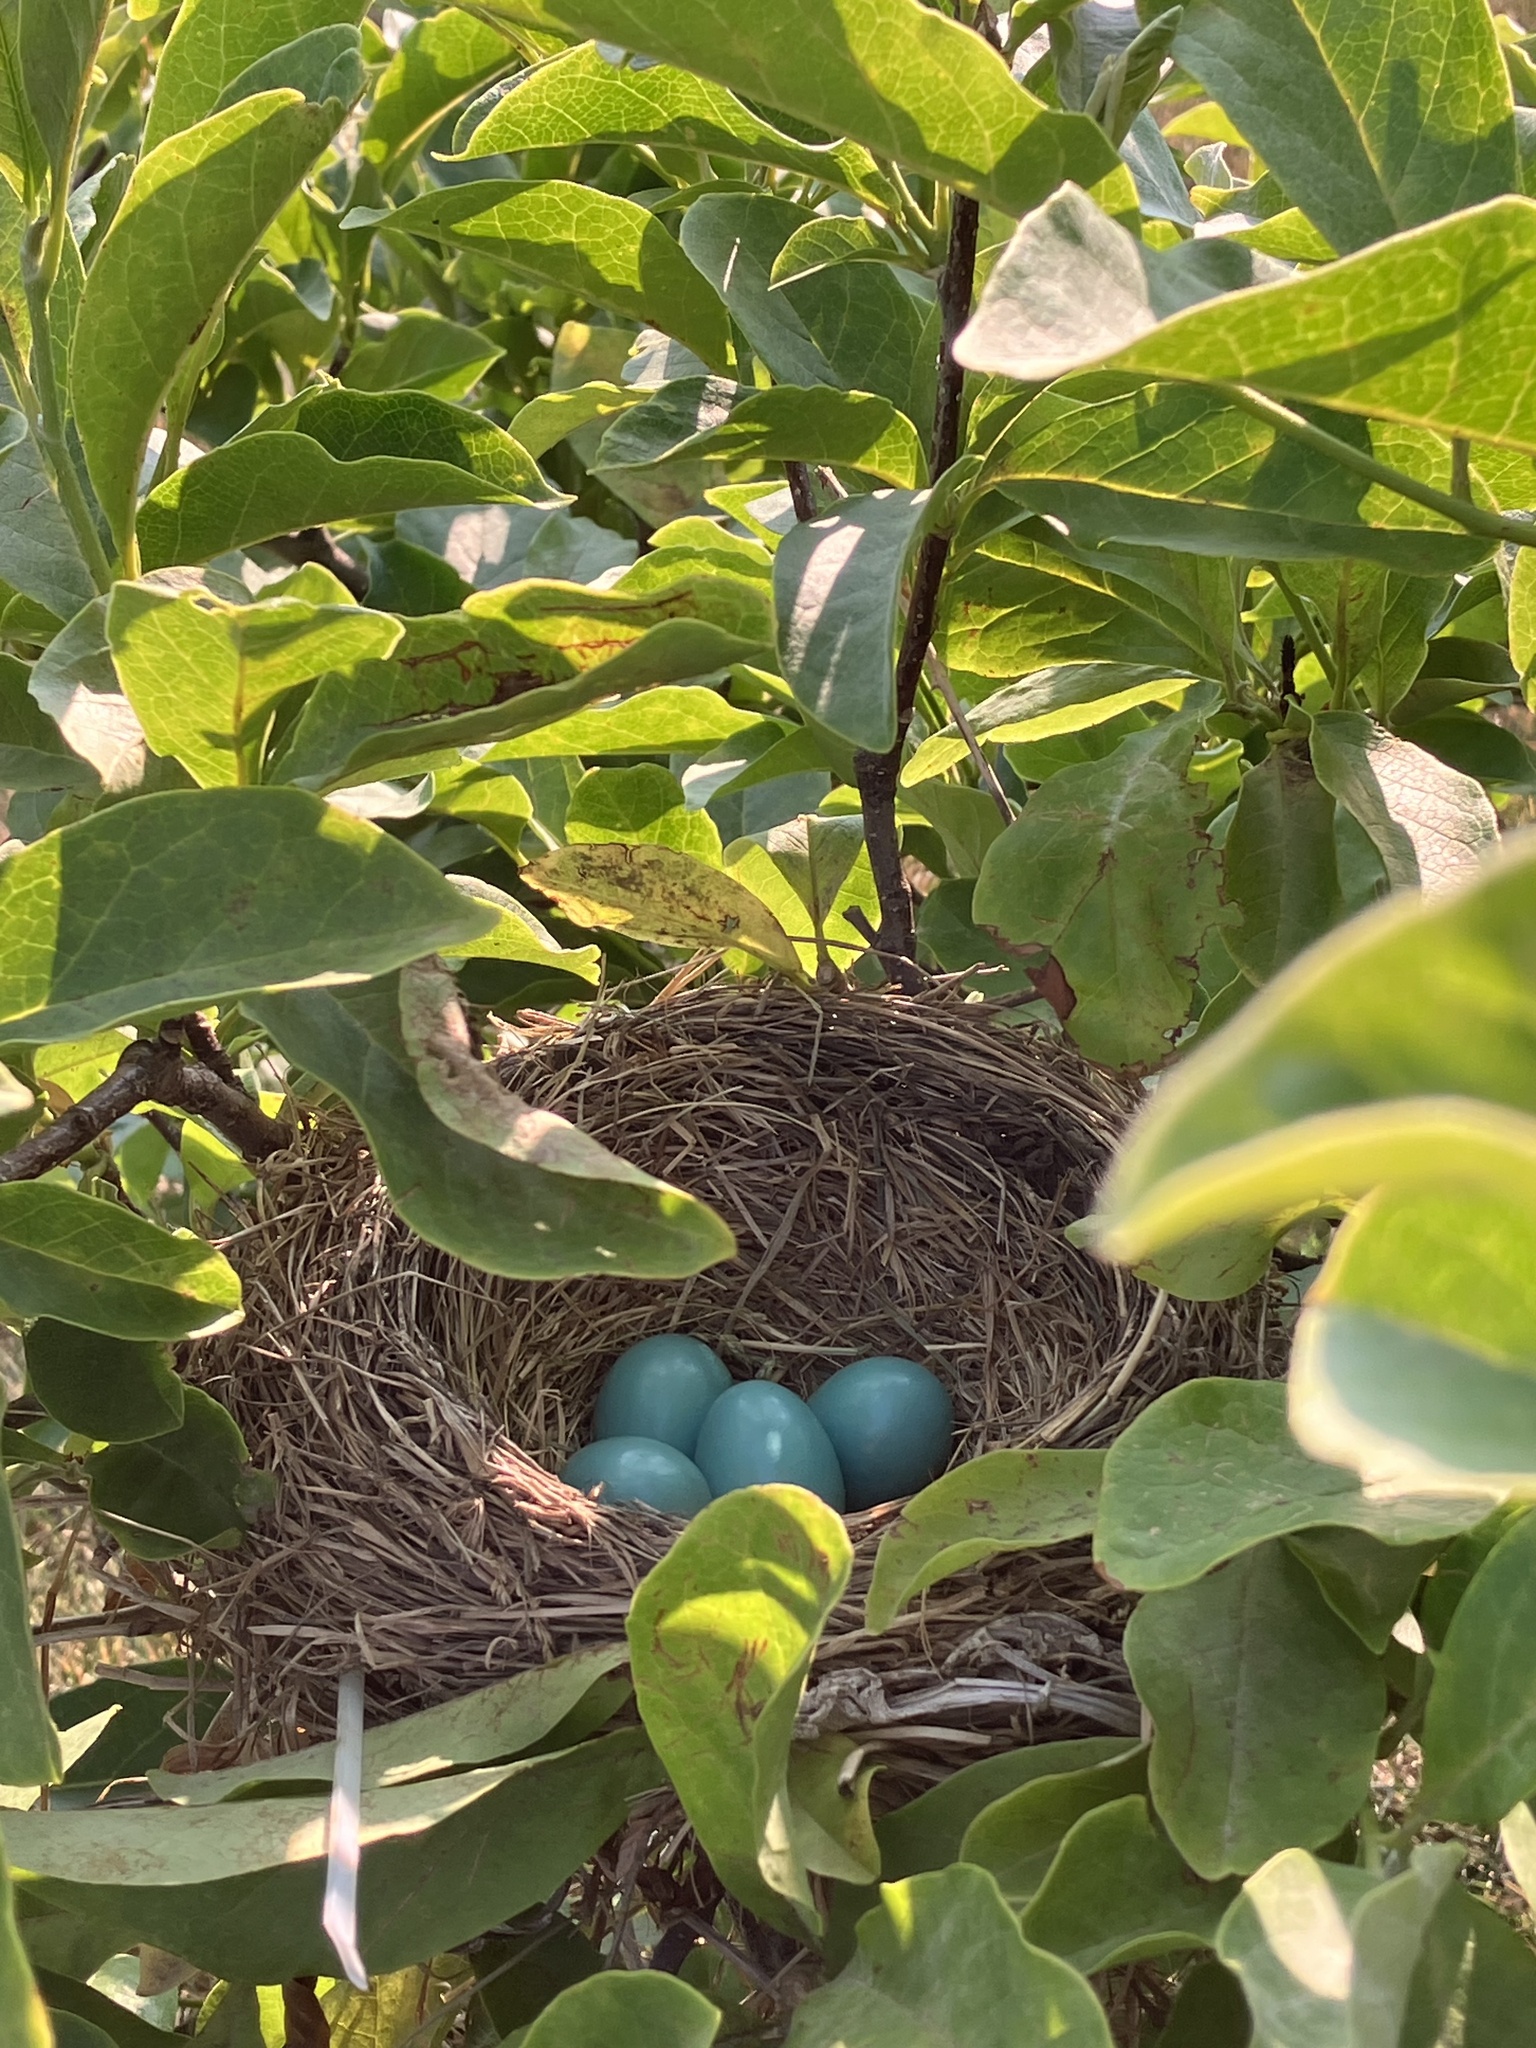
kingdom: Animalia
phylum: Chordata
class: Aves
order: Passeriformes
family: Turdidae
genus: Turdus
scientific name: Turdus migratorius
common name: American robin
